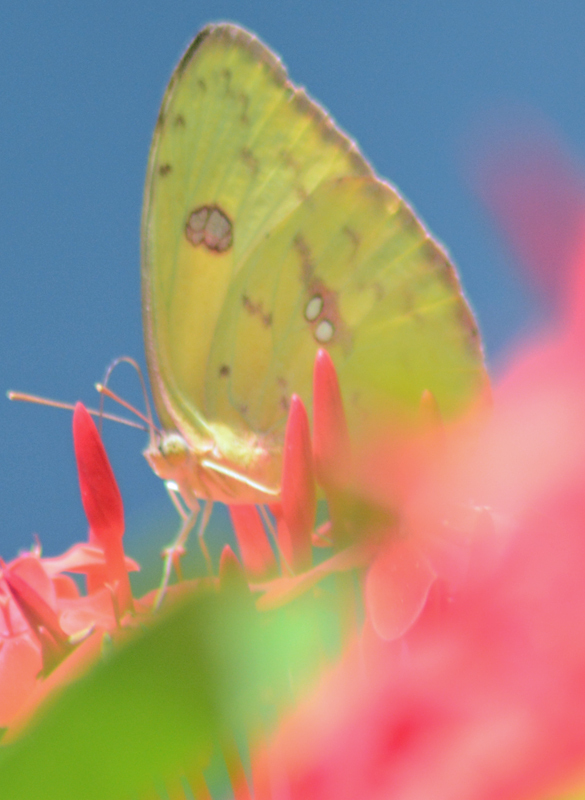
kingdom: Animalia
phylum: Arthropoda
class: Insecta
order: Lepidoptera
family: Pieridae
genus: Phoebis
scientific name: Phoebis marcellina
